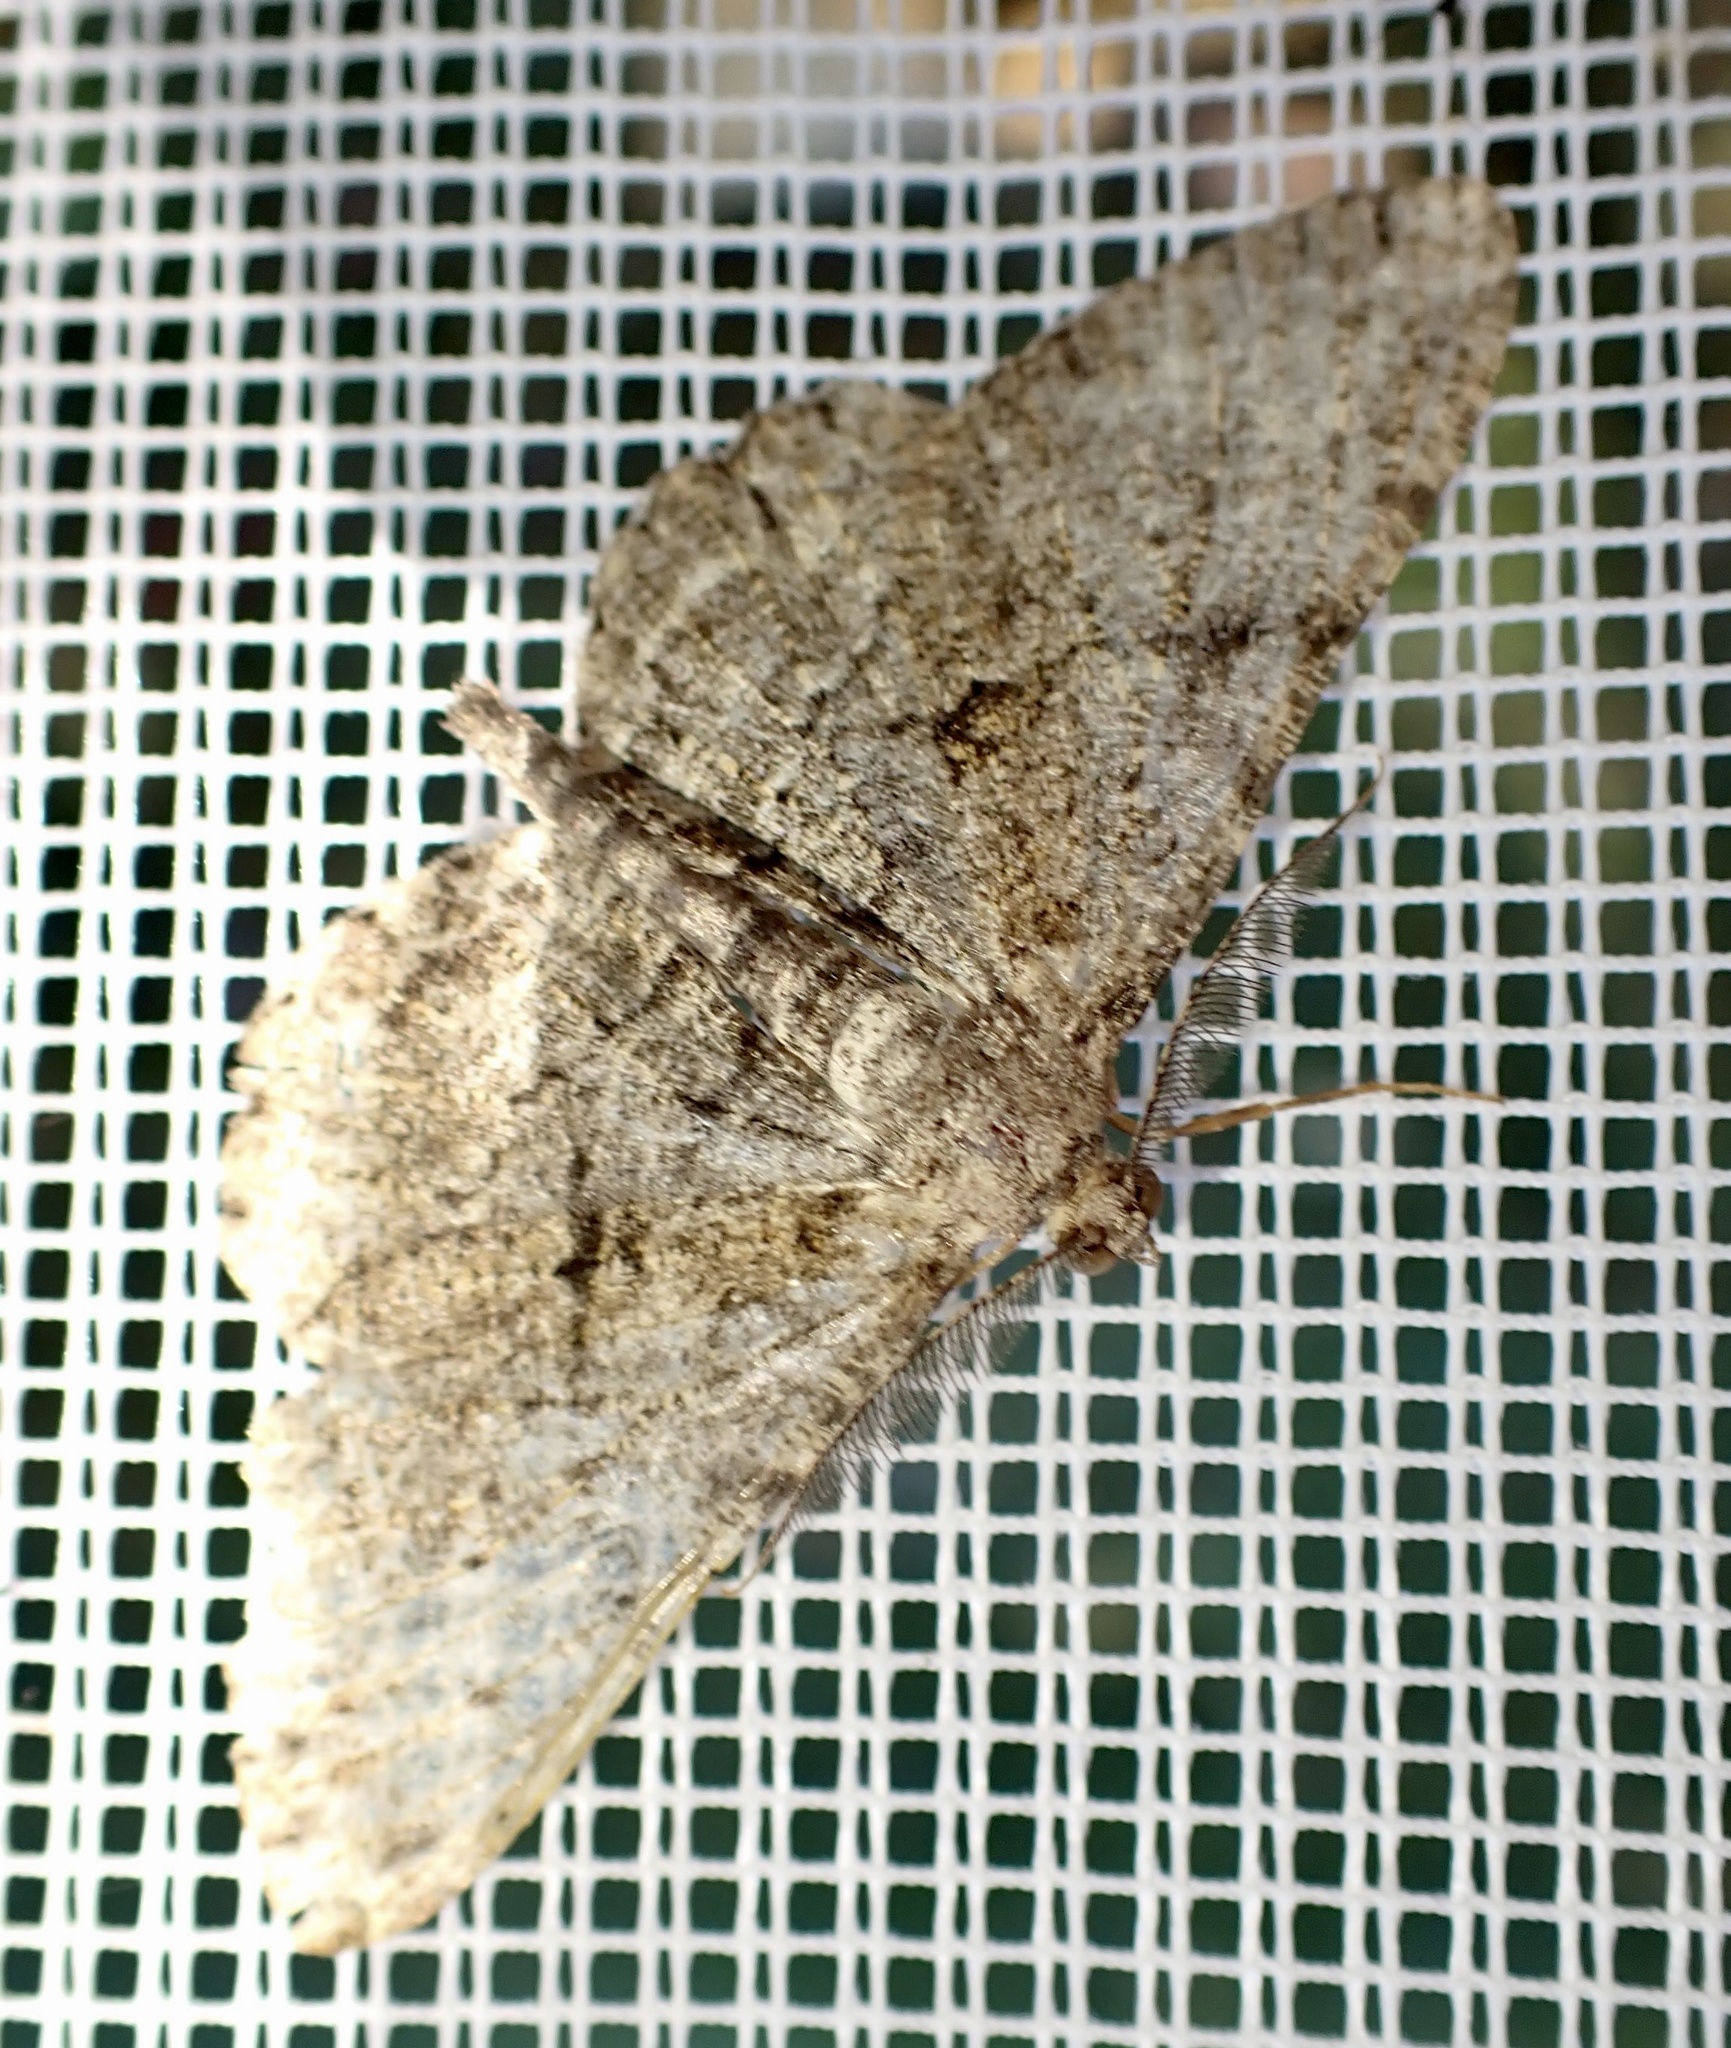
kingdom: Animalia
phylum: Arthropoda
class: Insecta
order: Lepidoptera
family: Geometridae
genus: Peribatodes
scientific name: Peribatodes rhomboidaria
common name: Willow beauty
